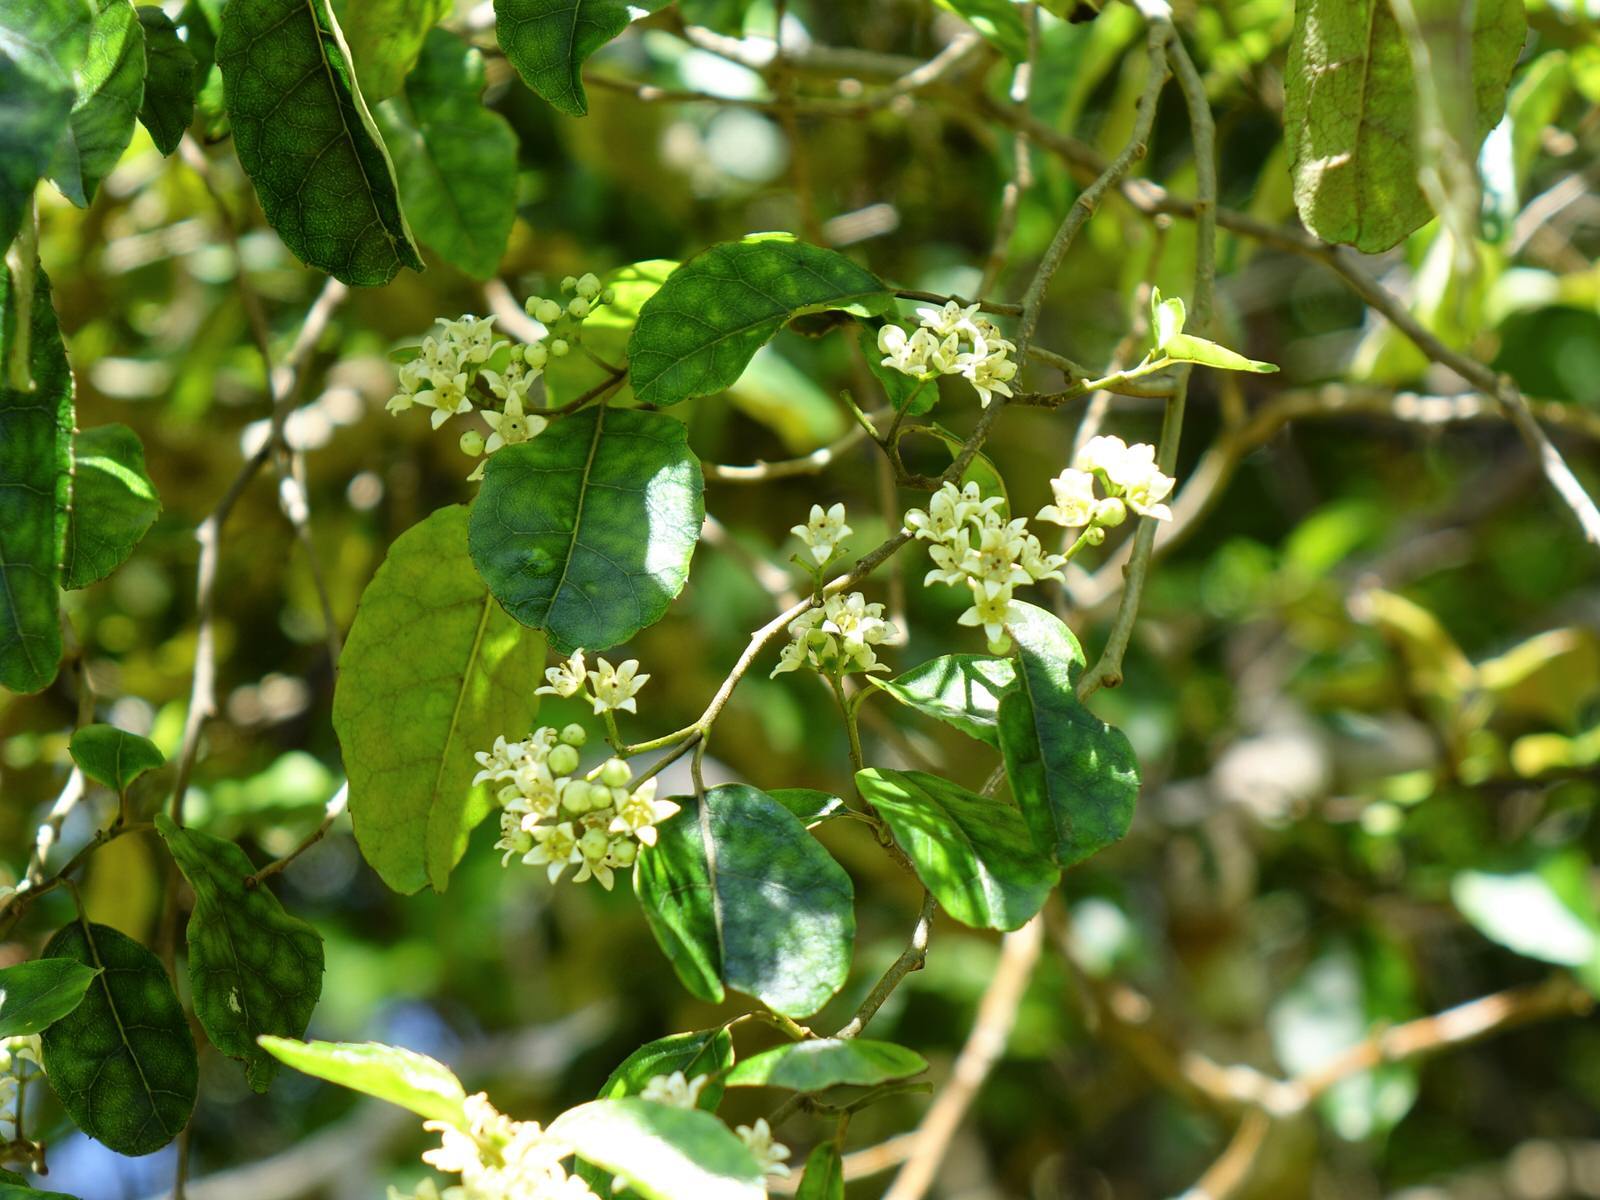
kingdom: Plantae
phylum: Tracheophyta
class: Magnoliopsida
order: Asterales
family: Rousseaceae
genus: Carpodetus
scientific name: Carpodetus serratus
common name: White mapau
